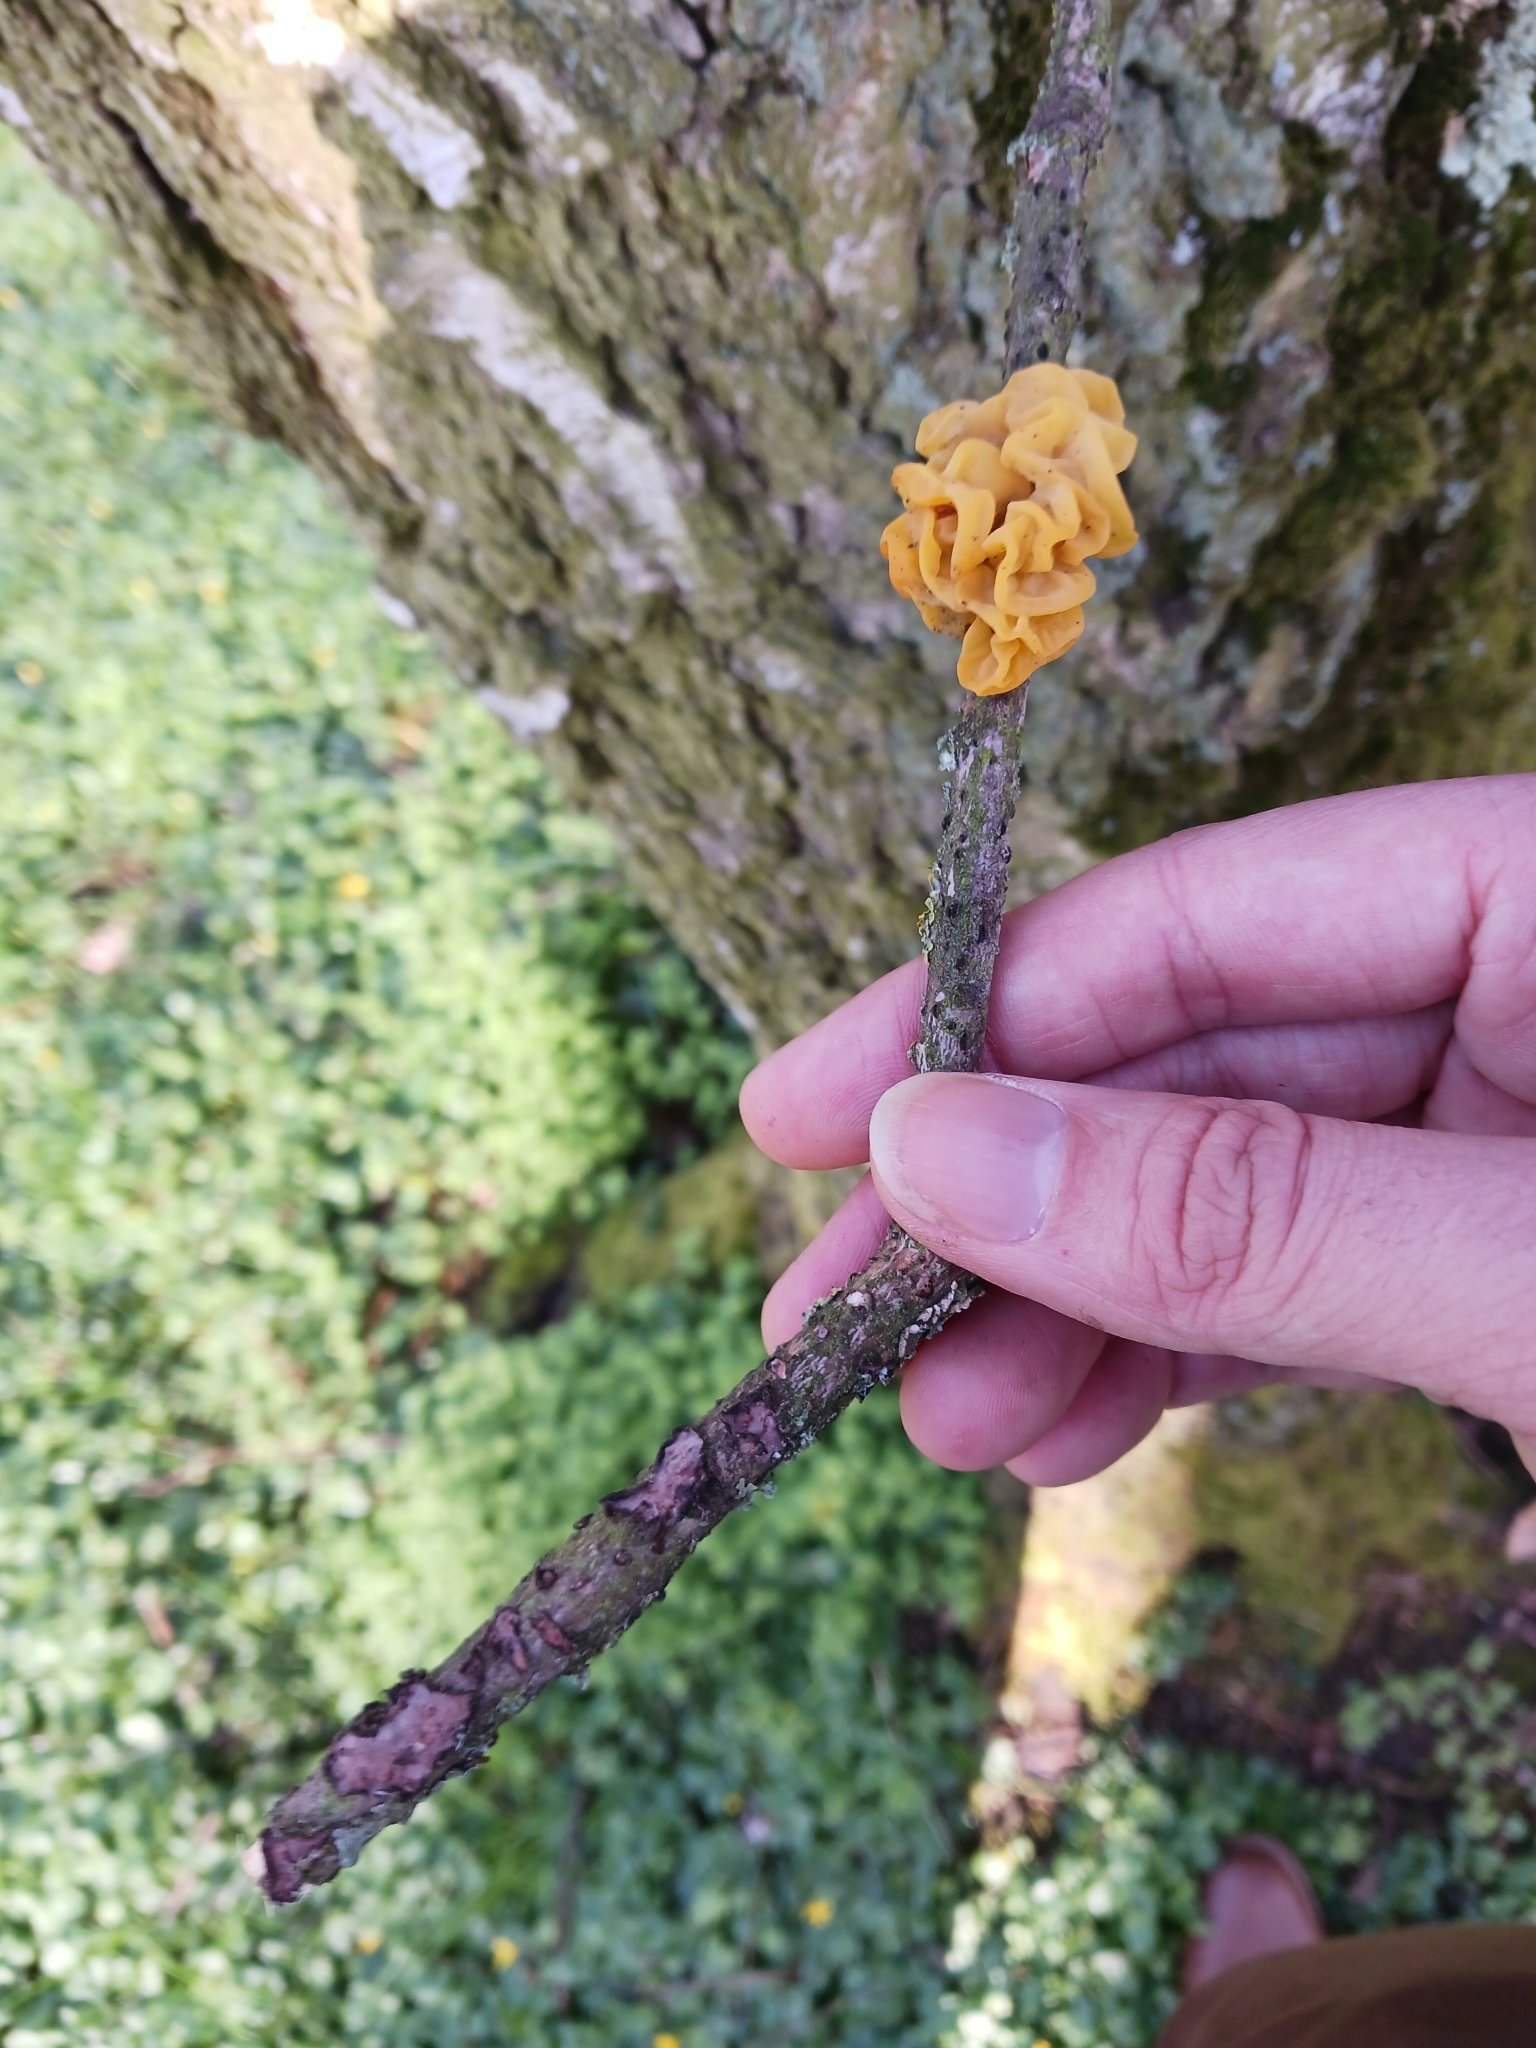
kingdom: Fungi
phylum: Basidiomycota
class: Tremellomycetes
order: Tremellales
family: Tremellaceae
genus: Tremella
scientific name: Tremella mesenterica
